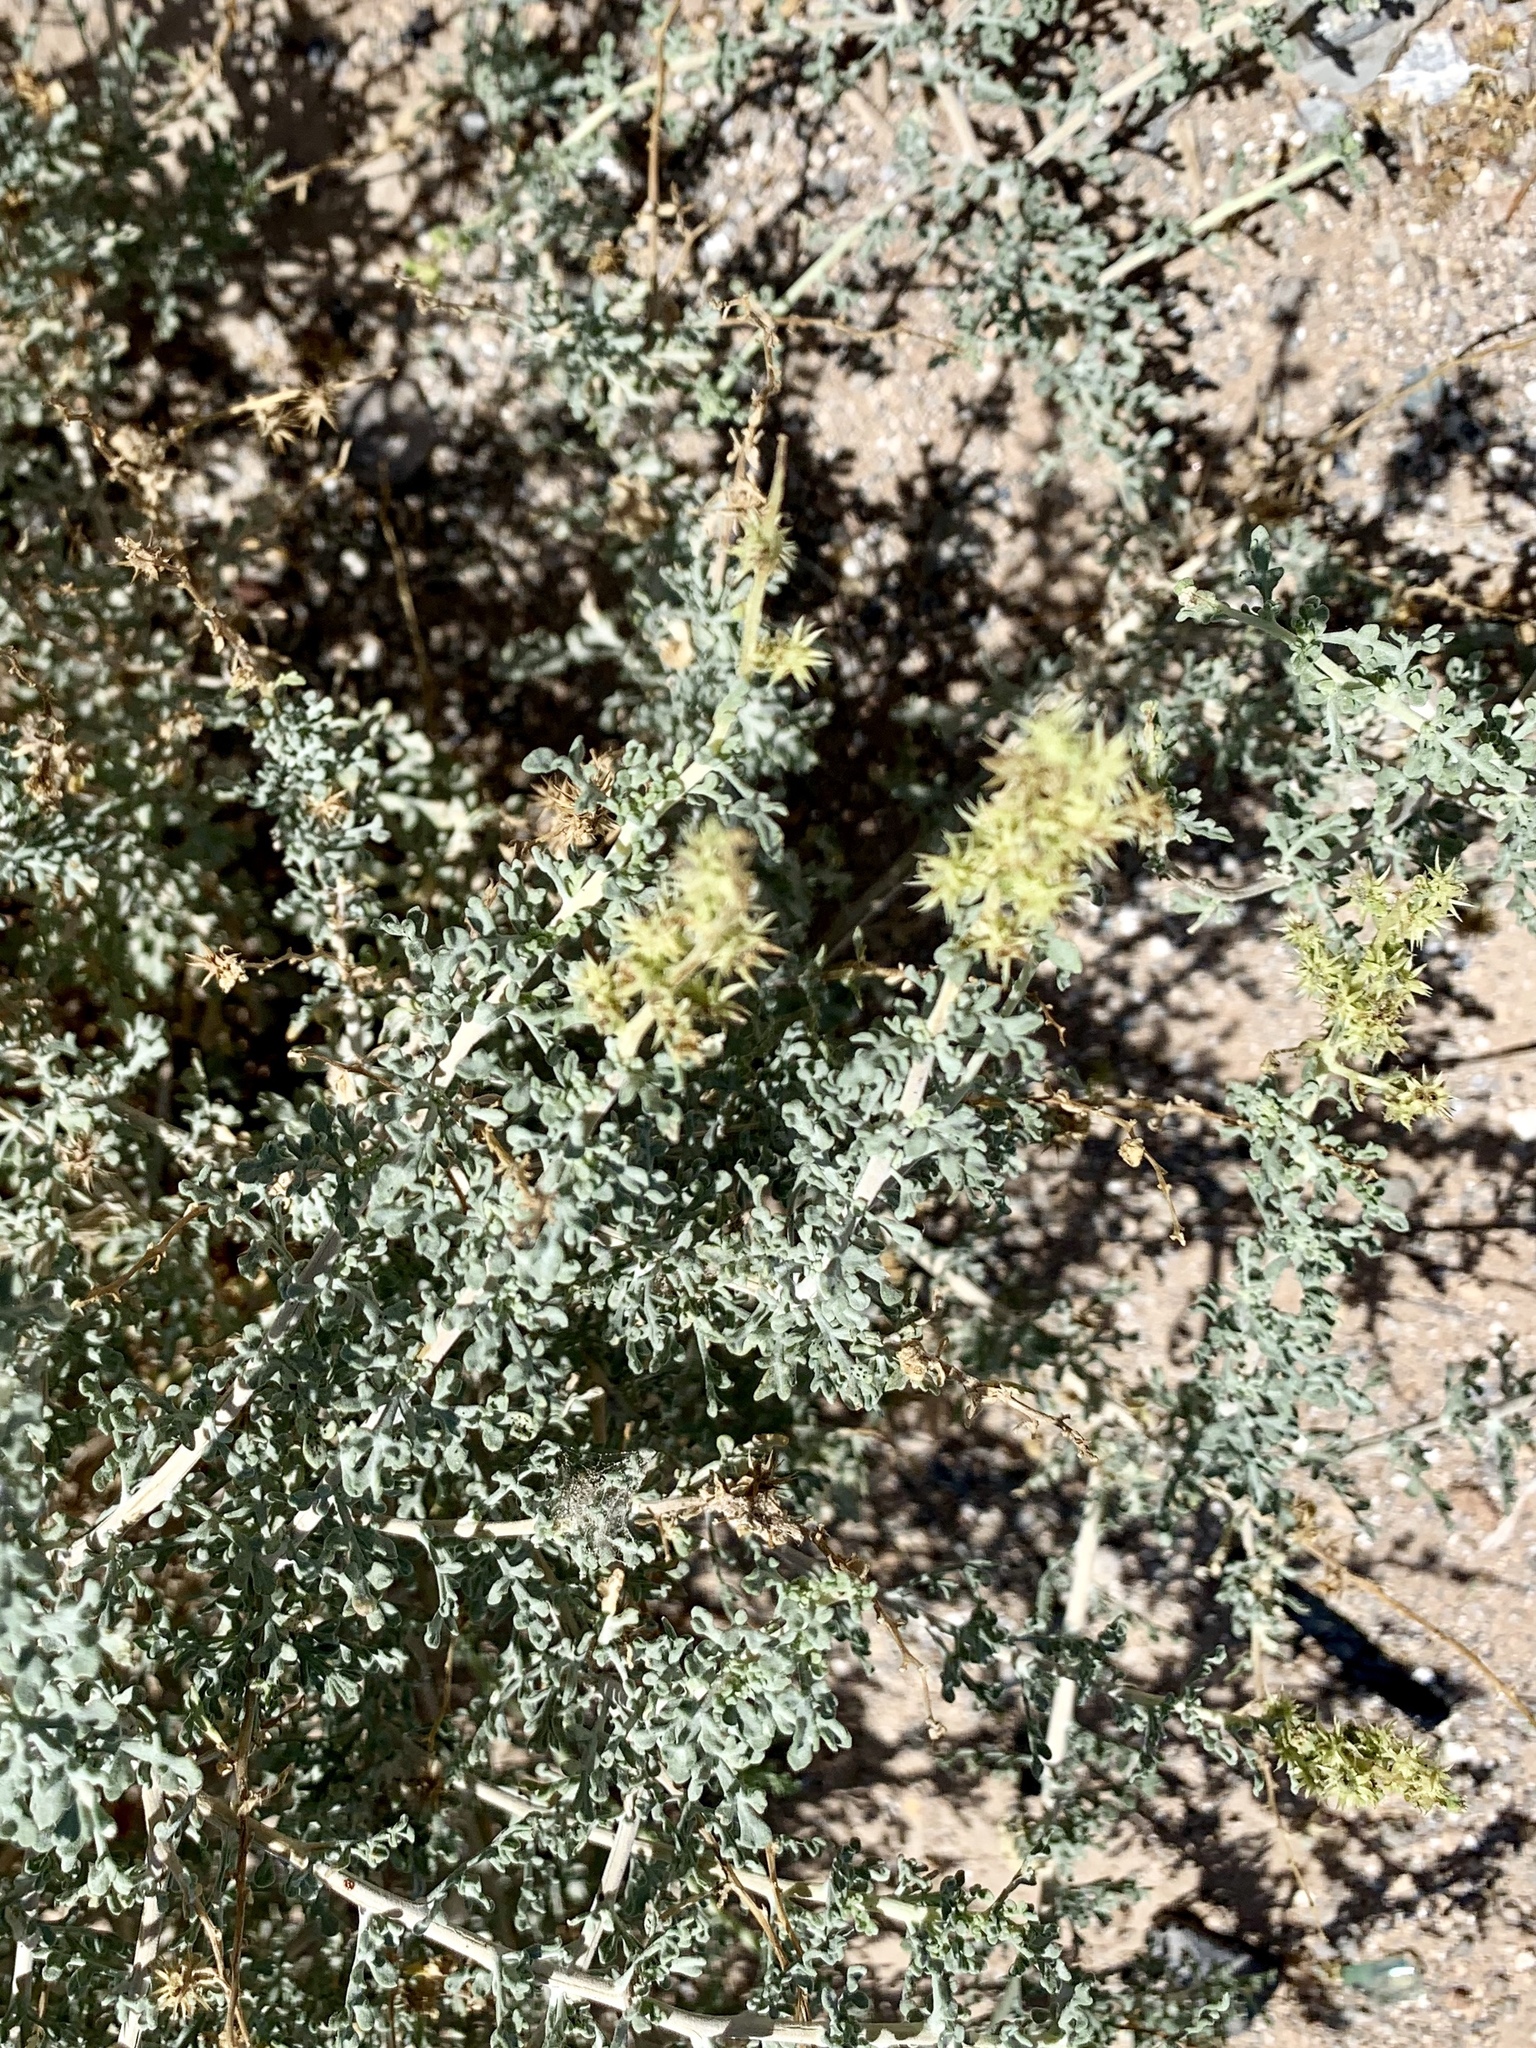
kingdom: Plantae
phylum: Tracheophyta
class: Magnoliopsida
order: Asterales
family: Asteraceae
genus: Ambrosia
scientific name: Ambrosia dumosa
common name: Bur-sage
